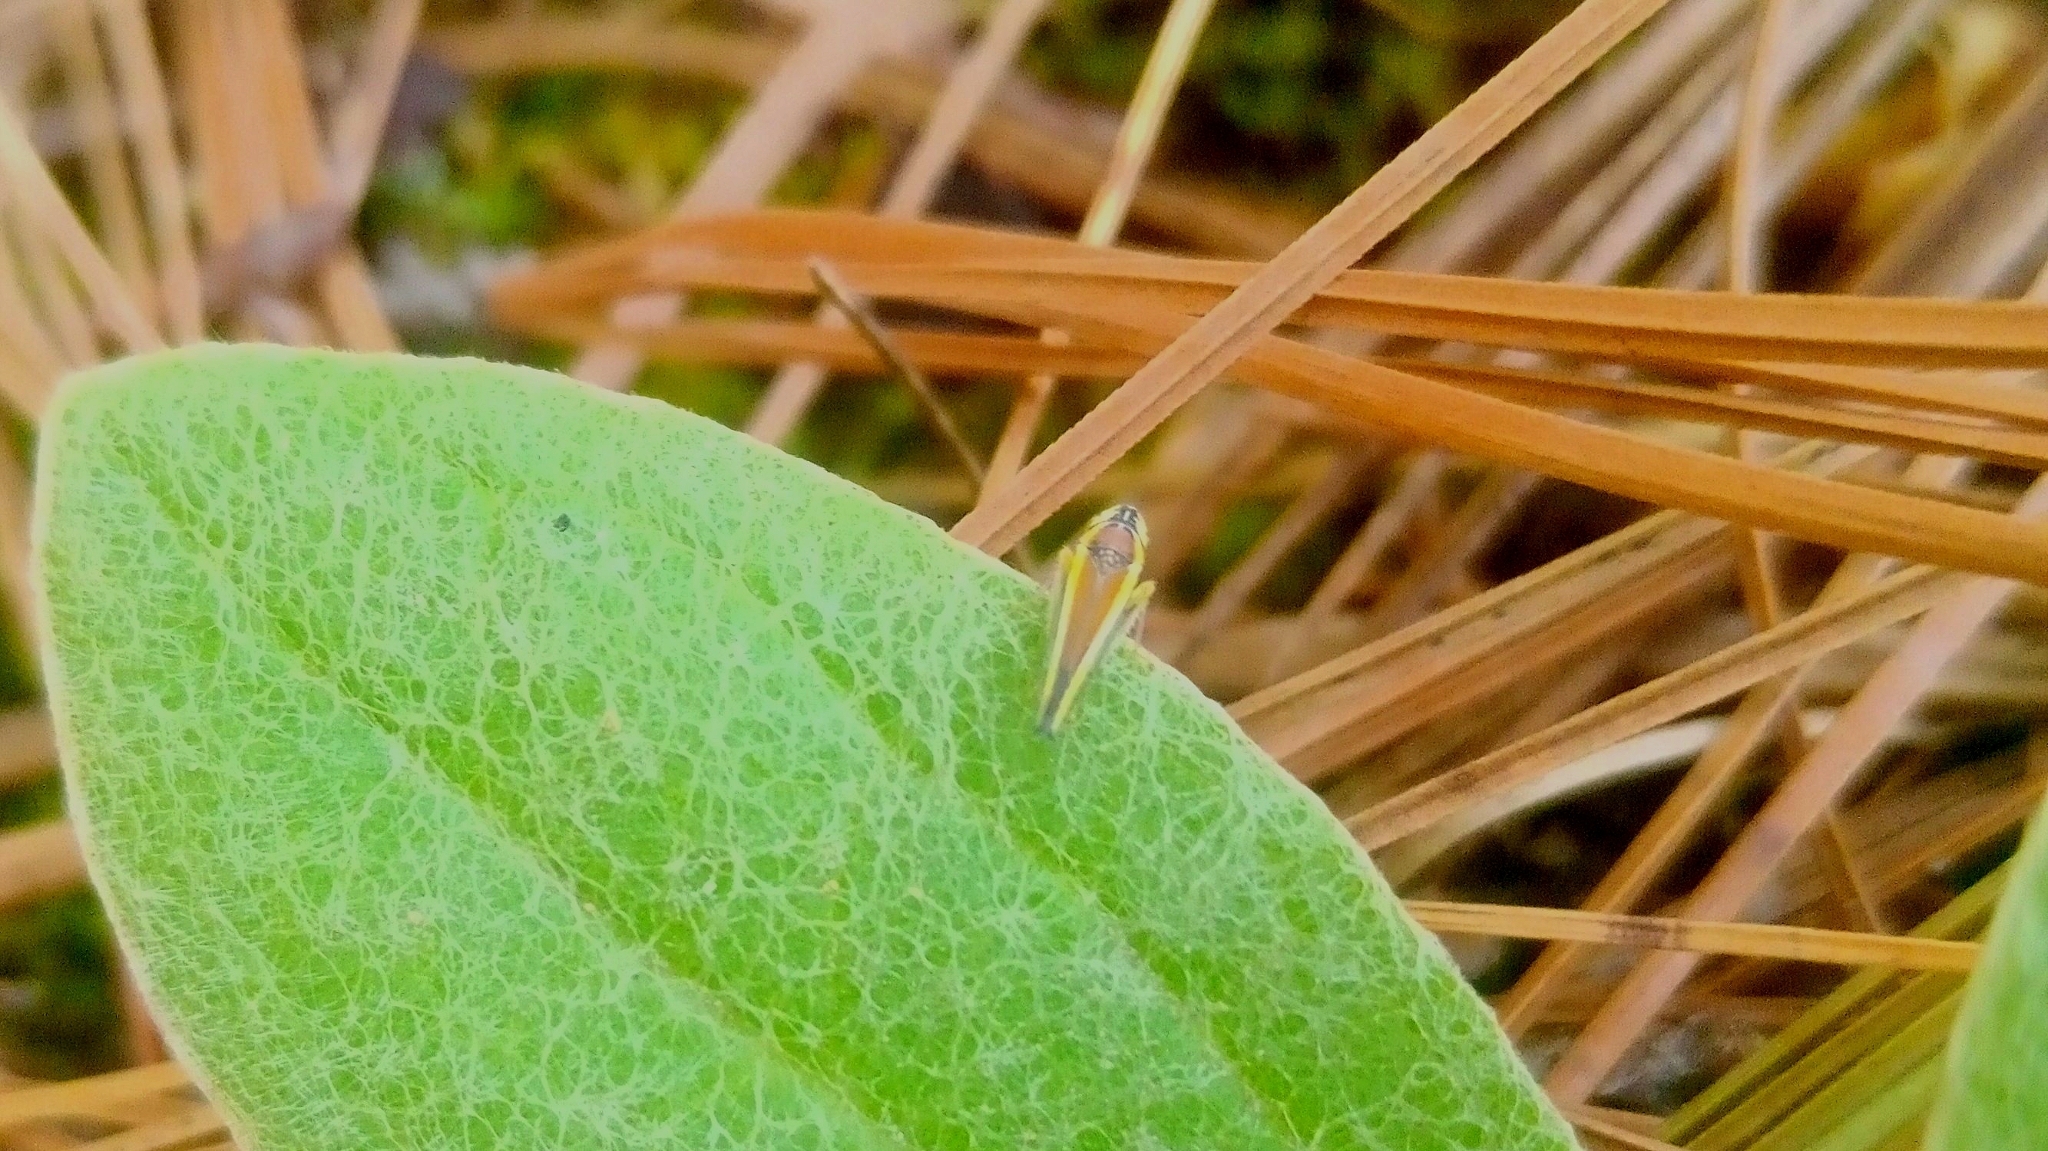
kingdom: Animalia
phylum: Arthropoda
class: Insecta
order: Hemiptera
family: Cicadellidae
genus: Graphocephala
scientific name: Graphocephala depicta
